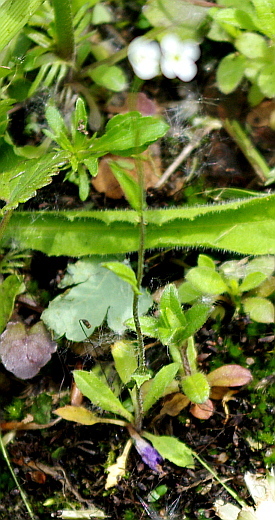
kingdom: Plantae
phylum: Tracheophyta
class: Magnoliopsida
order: Brassicales
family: Brassicaceae
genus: Capsella
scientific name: Capsella bursa-pastoris
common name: Shepherd's purse
